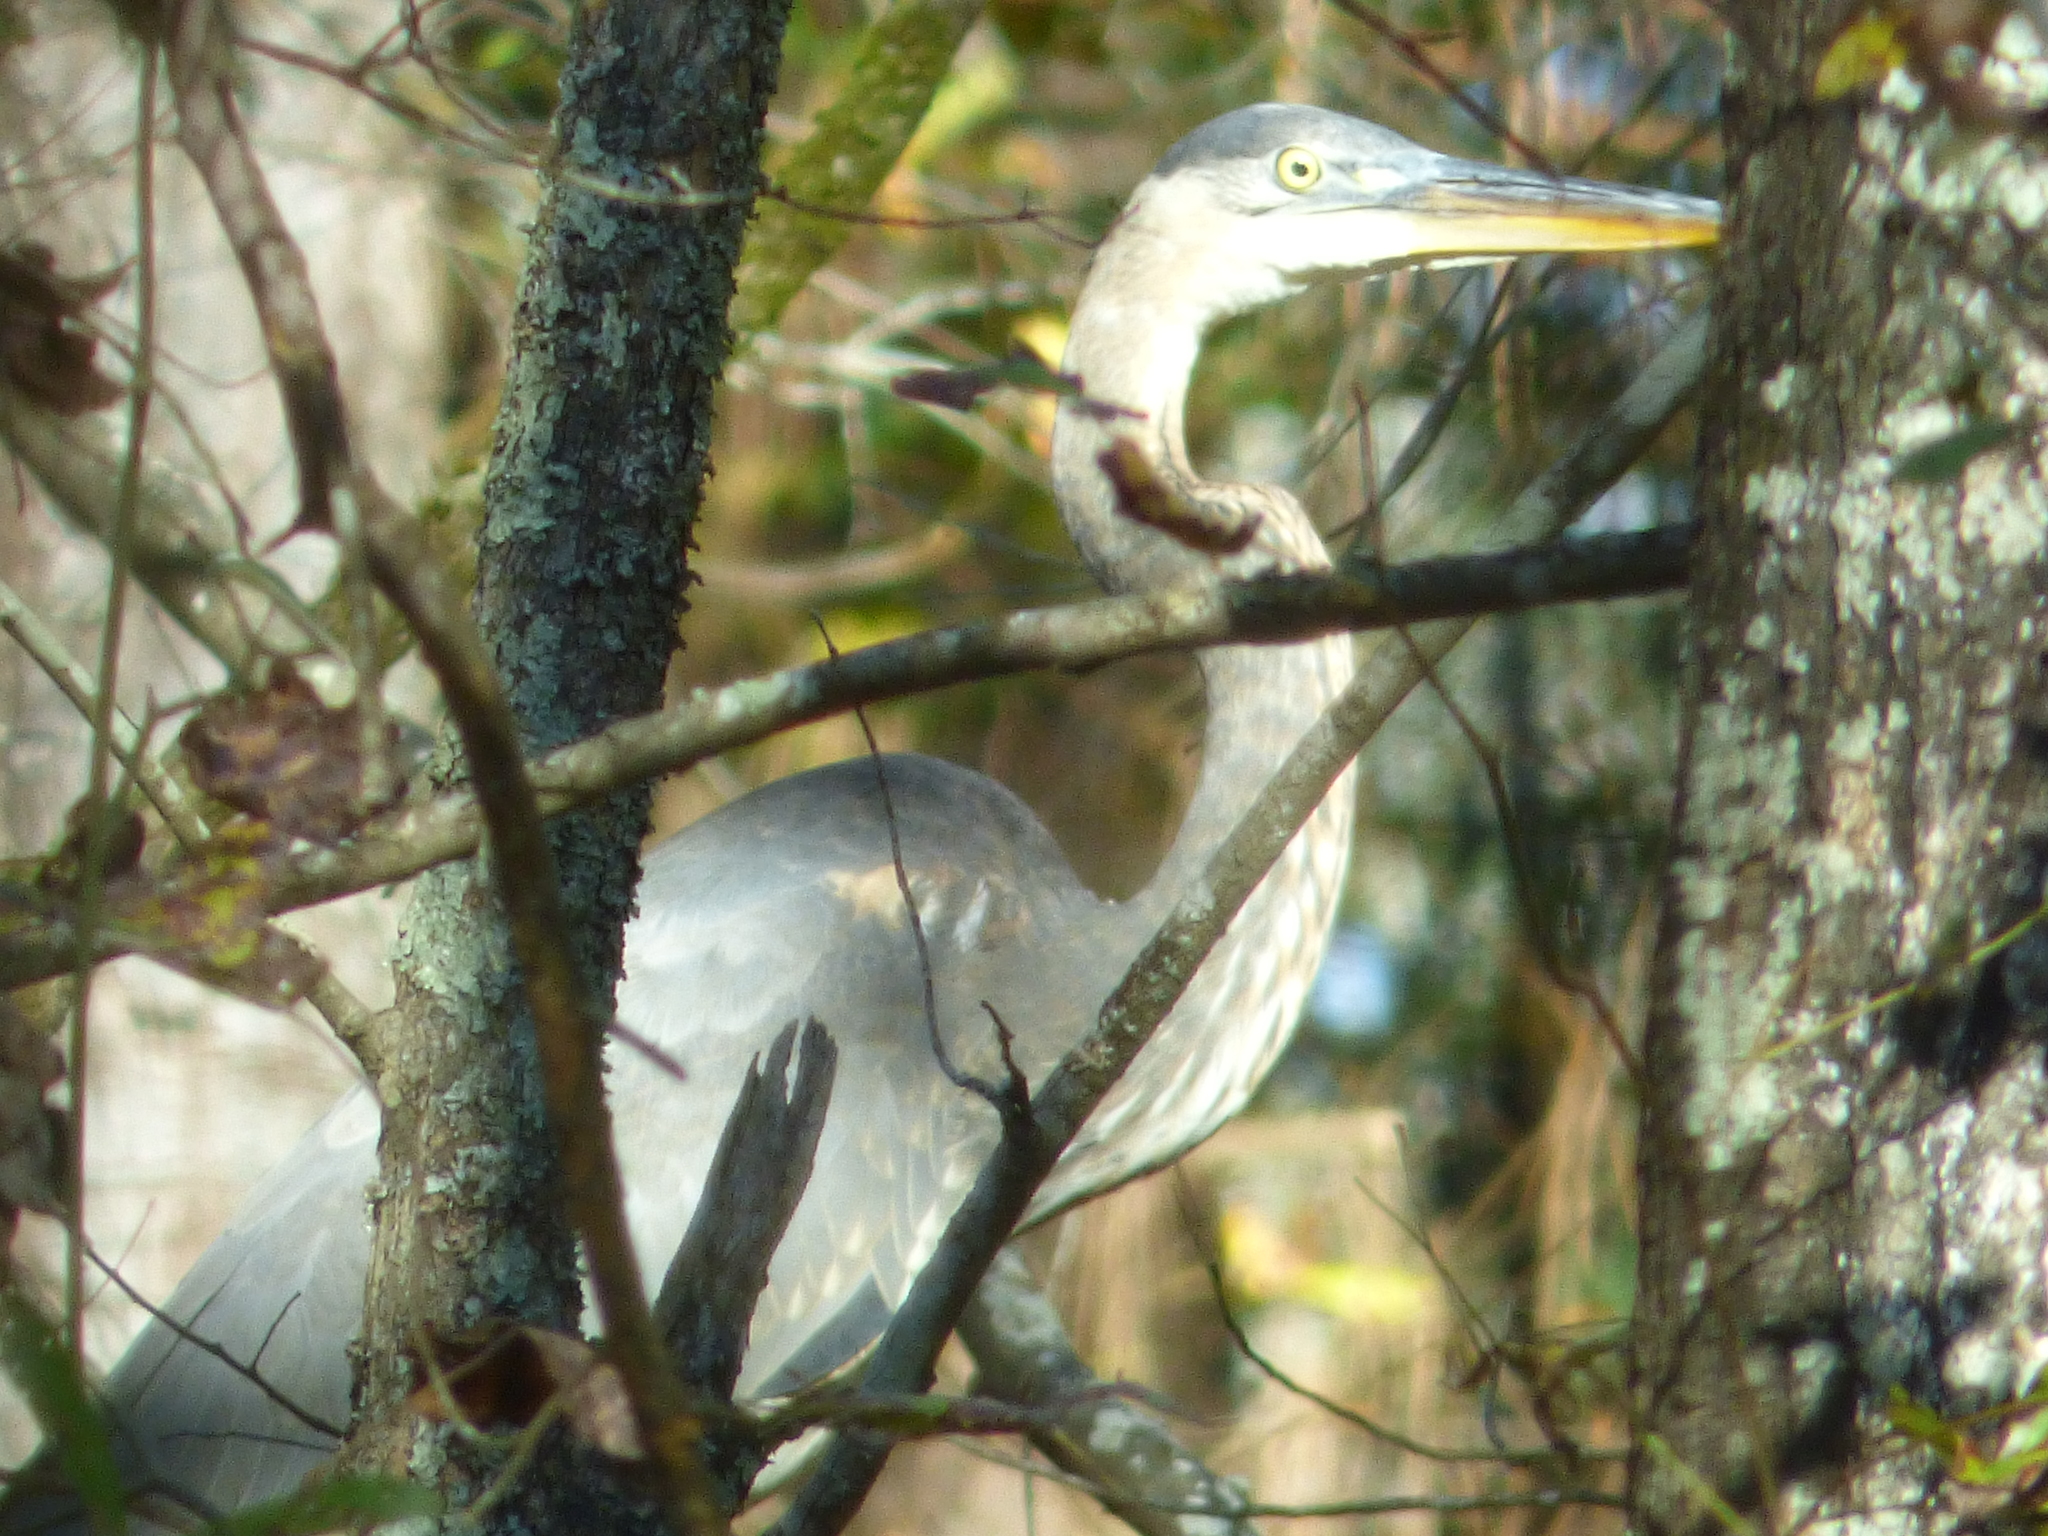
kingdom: Animalia
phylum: Chordata
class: Aves
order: Pelecaniformes
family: Ardeidae
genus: Ardea
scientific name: Ardea herodias
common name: Great blue heron
